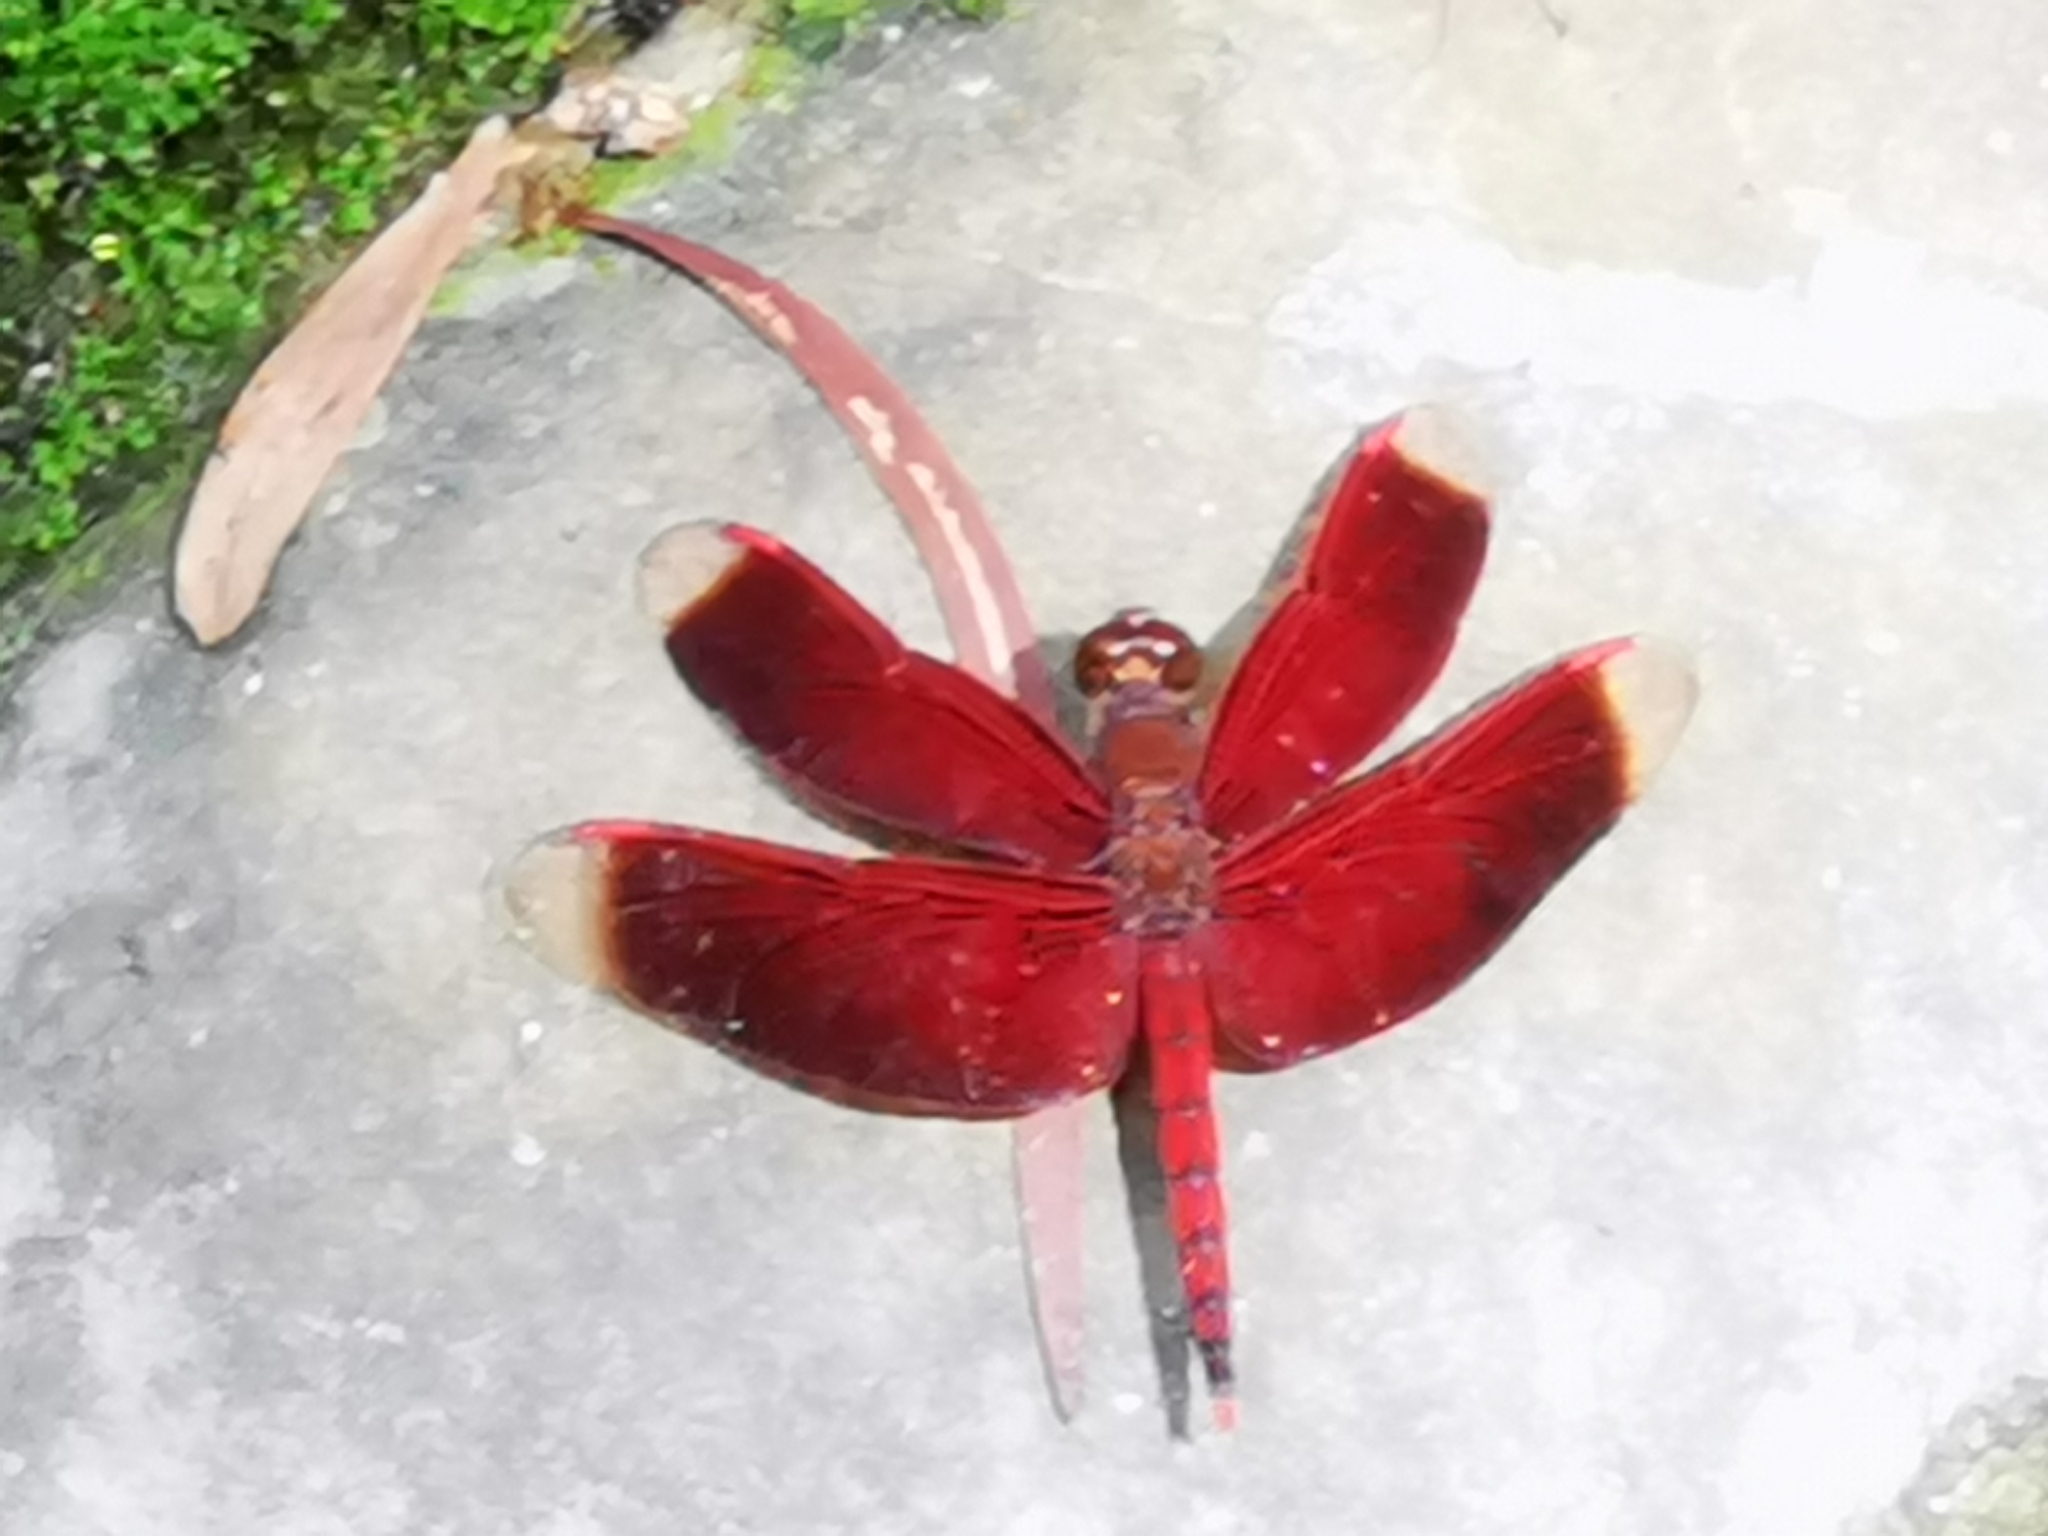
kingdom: Animalia
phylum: Arthropoda
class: Insecta
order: Odonata
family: Libellulidae
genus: Neurothemis
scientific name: Neurothemis taiwanensis
